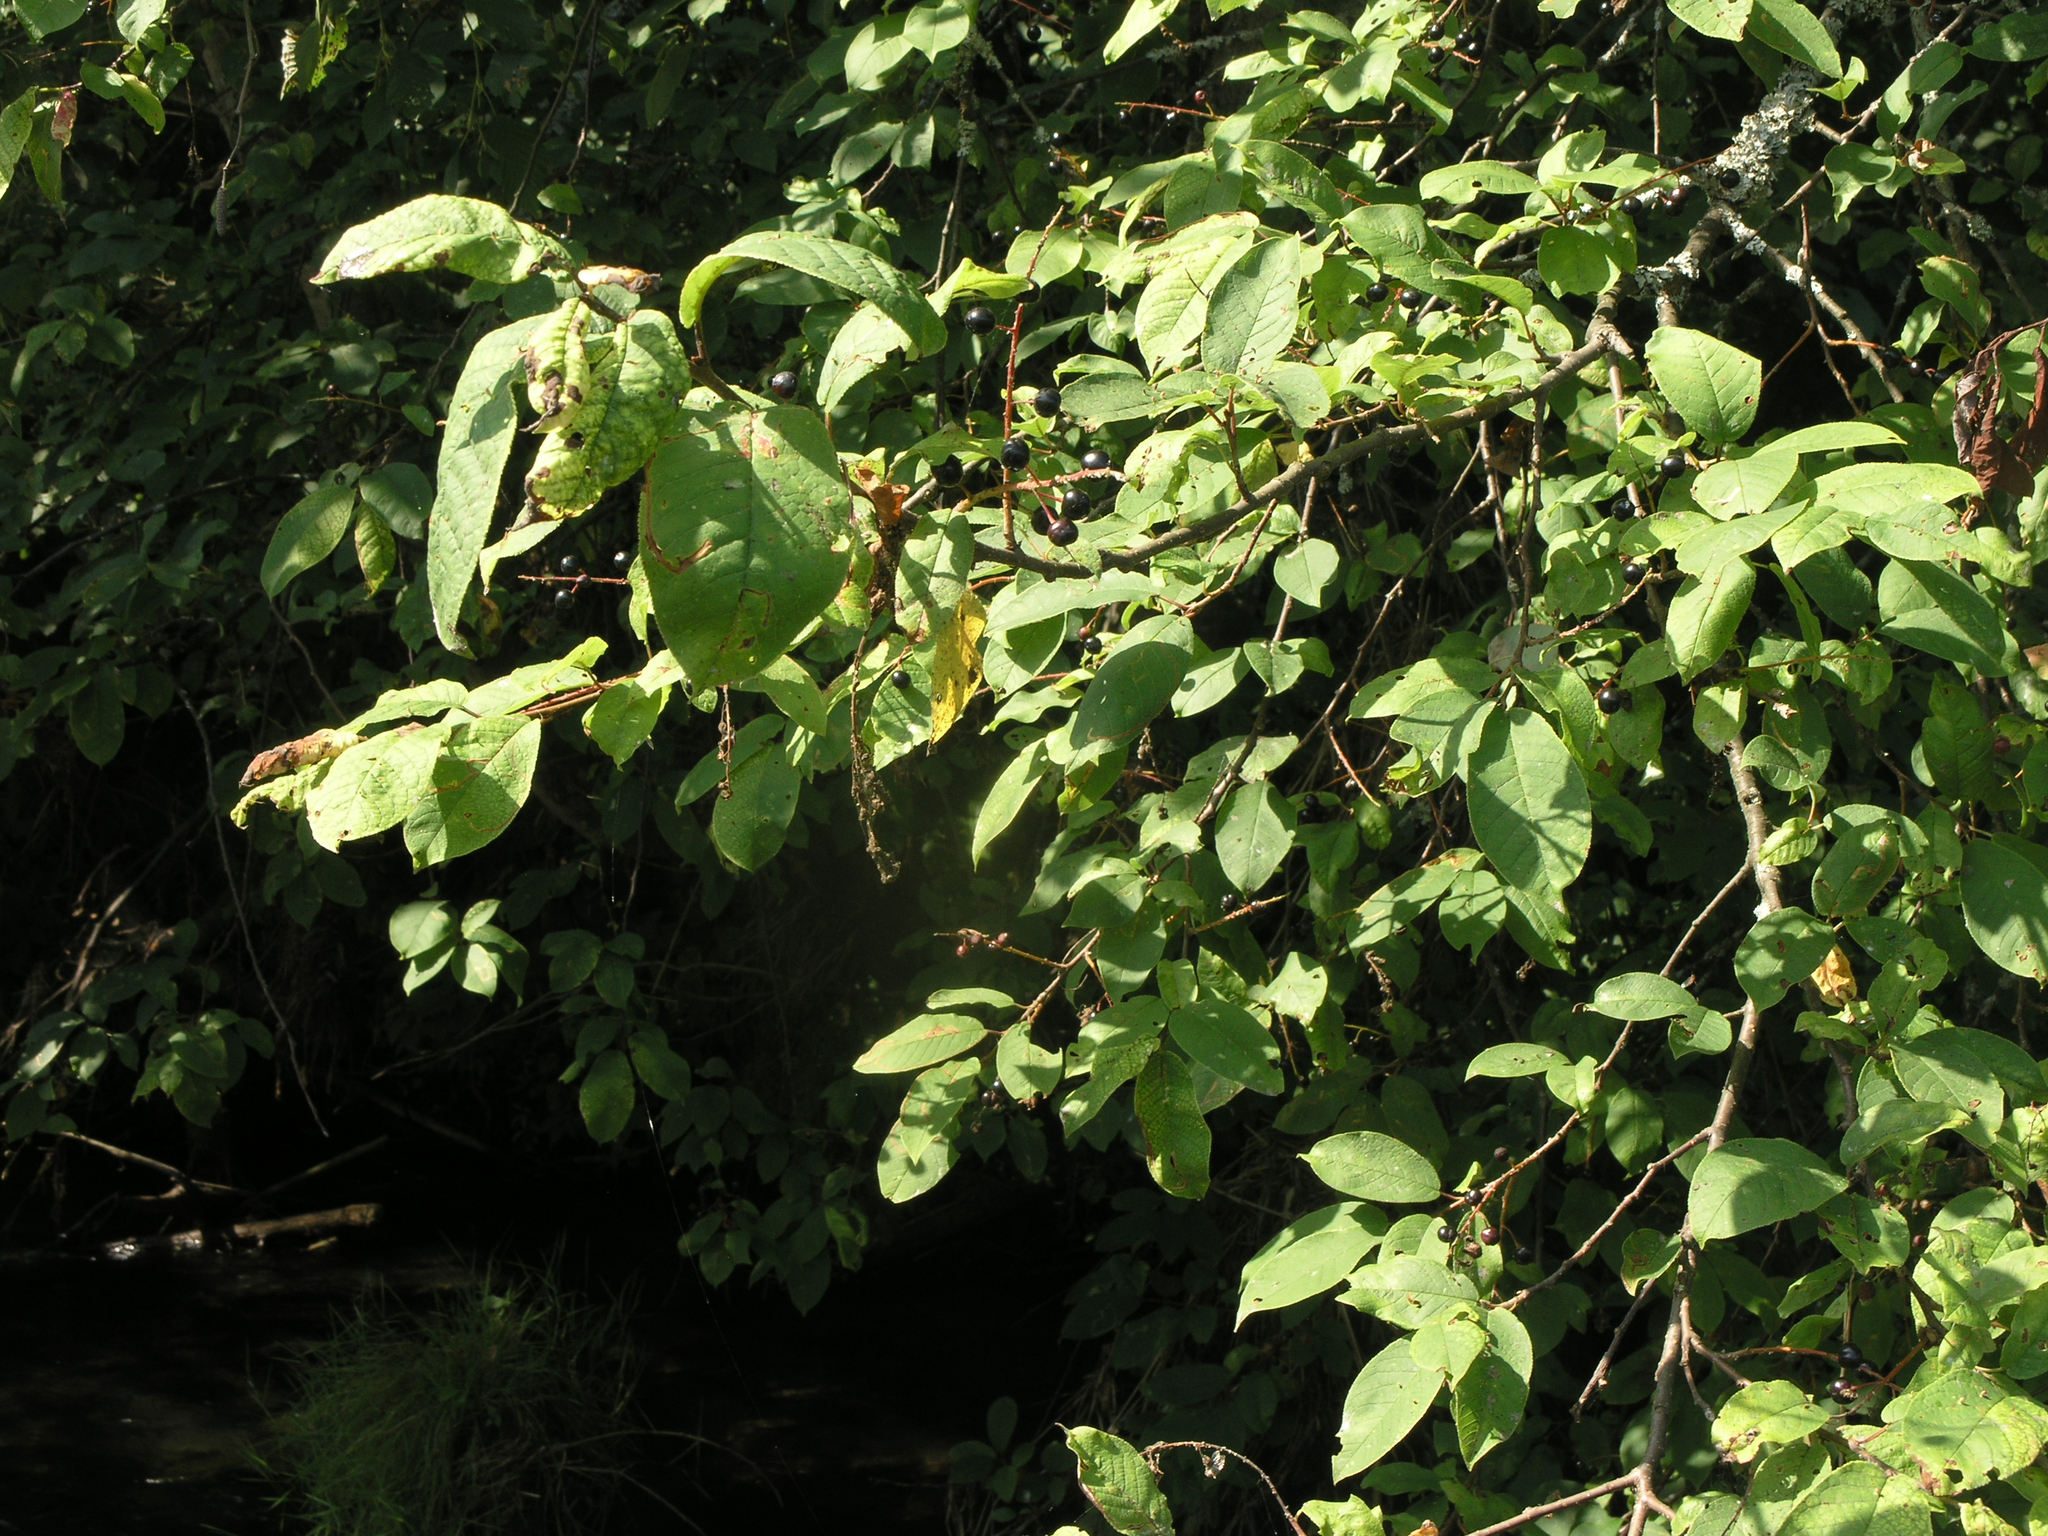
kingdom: Plantae
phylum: Tracheophyta
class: Magnoliopsida
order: Rosales
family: Rosaceae
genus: Prunus
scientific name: Prunus padus
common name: Bird cherry
